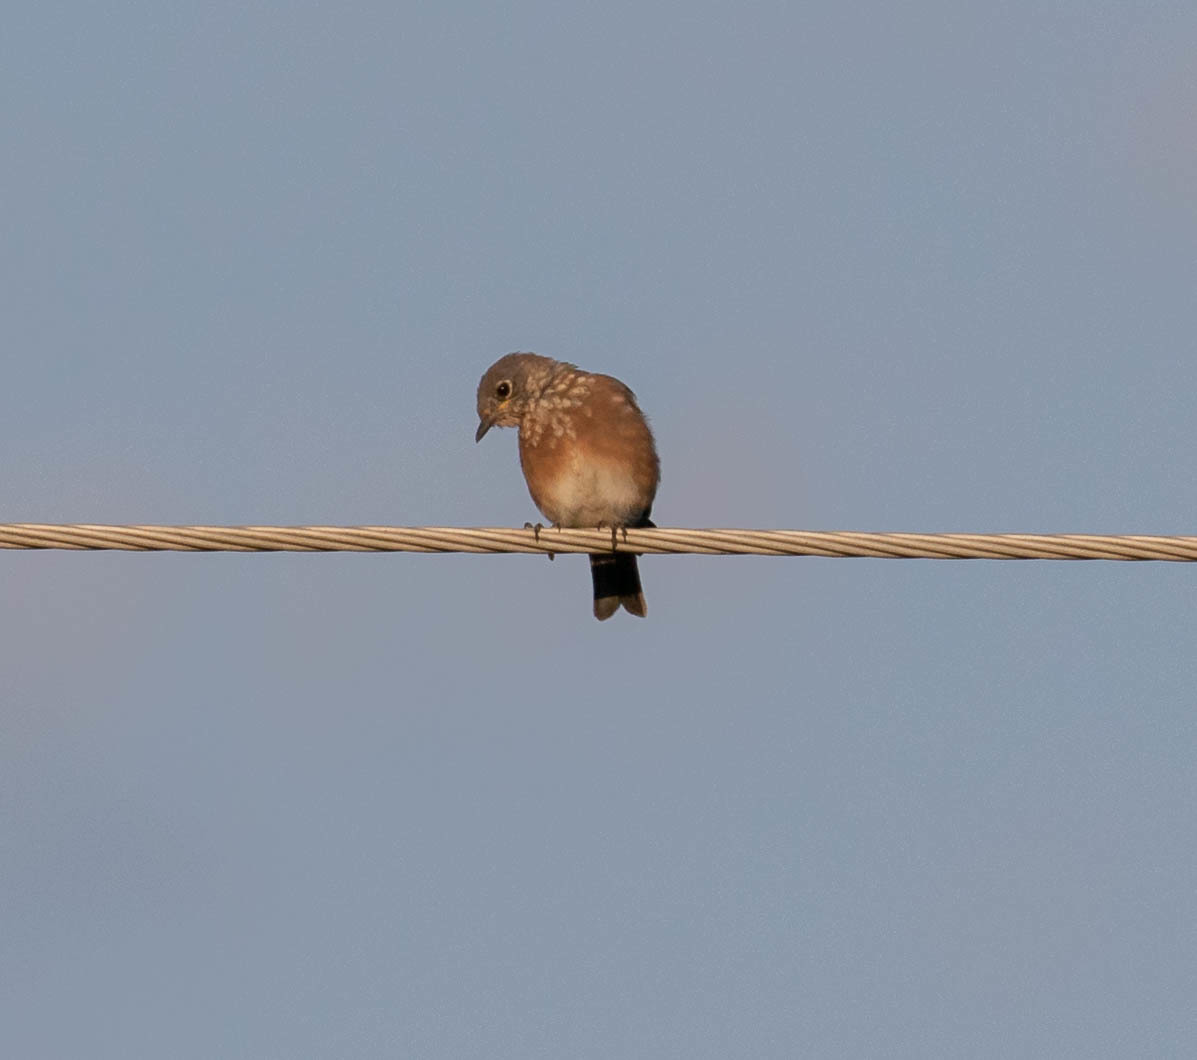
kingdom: Animalia
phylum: Chordata
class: Aves
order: Passeriformes
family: Turdidae
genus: Sialia
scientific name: Sialia sialis
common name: Eastern bluebird
